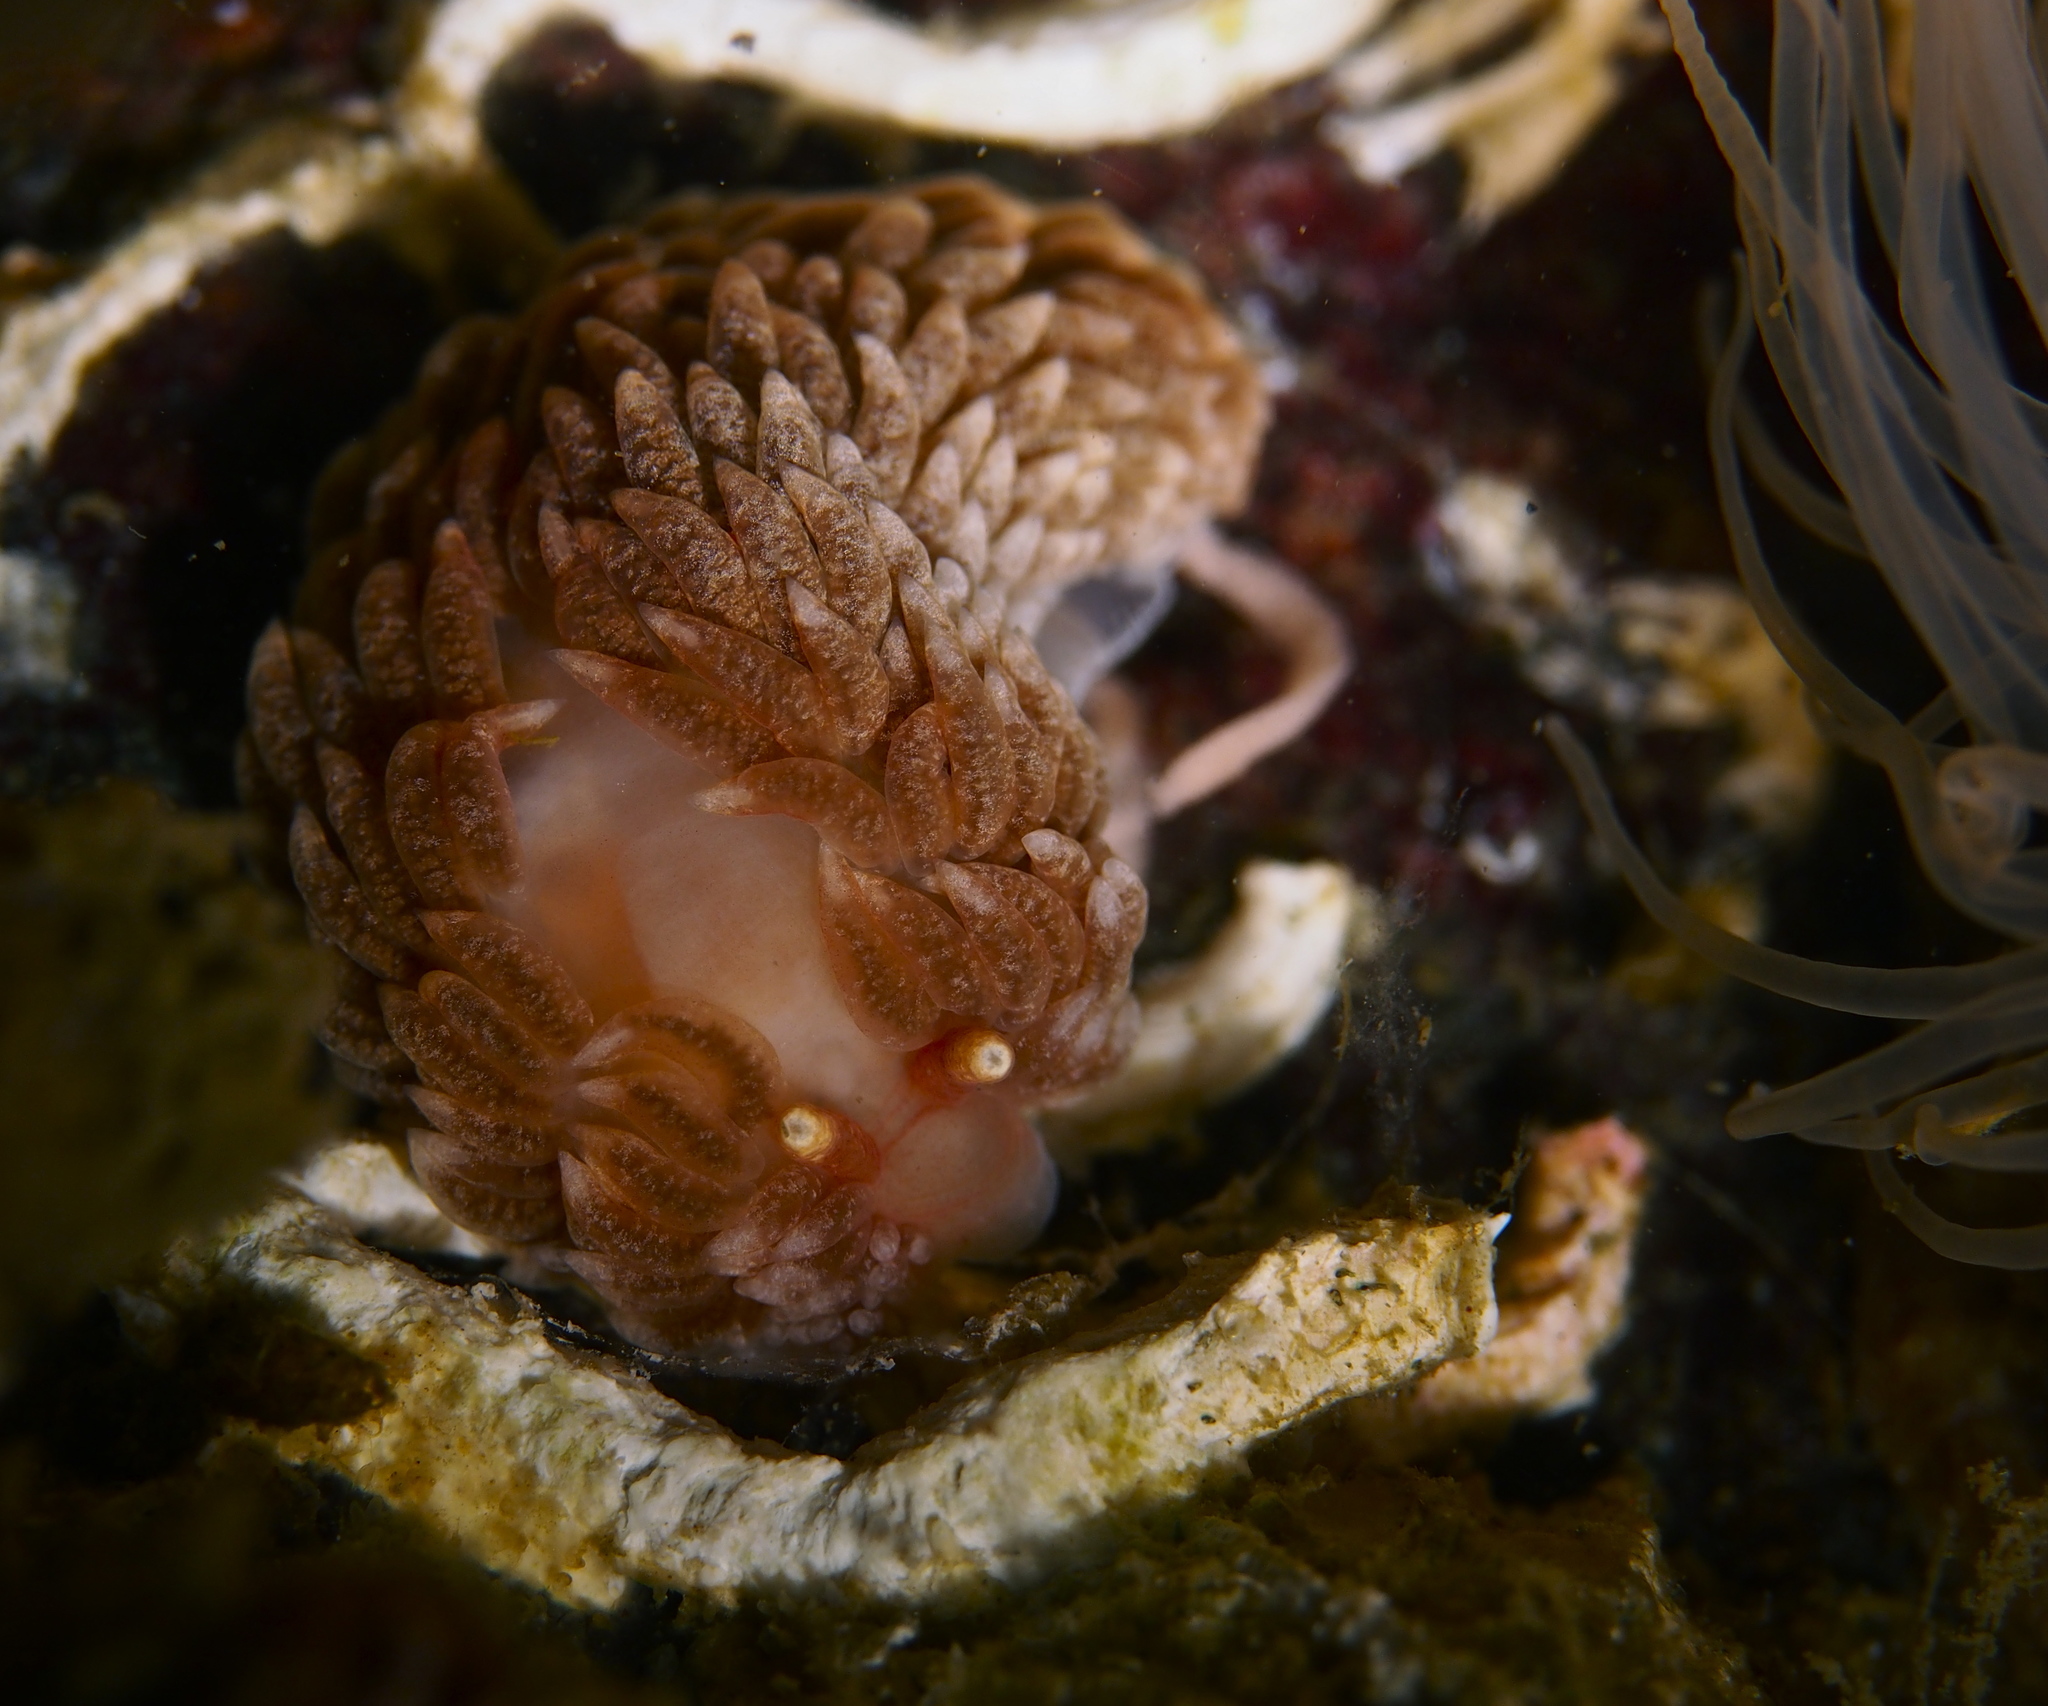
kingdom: Animalia
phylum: Mollusca
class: Gastropoda
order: Nudibranchia
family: Aeolidiidae
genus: Aeolidiella
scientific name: Aeolidiella glauca
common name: Orange-brown aeolid
